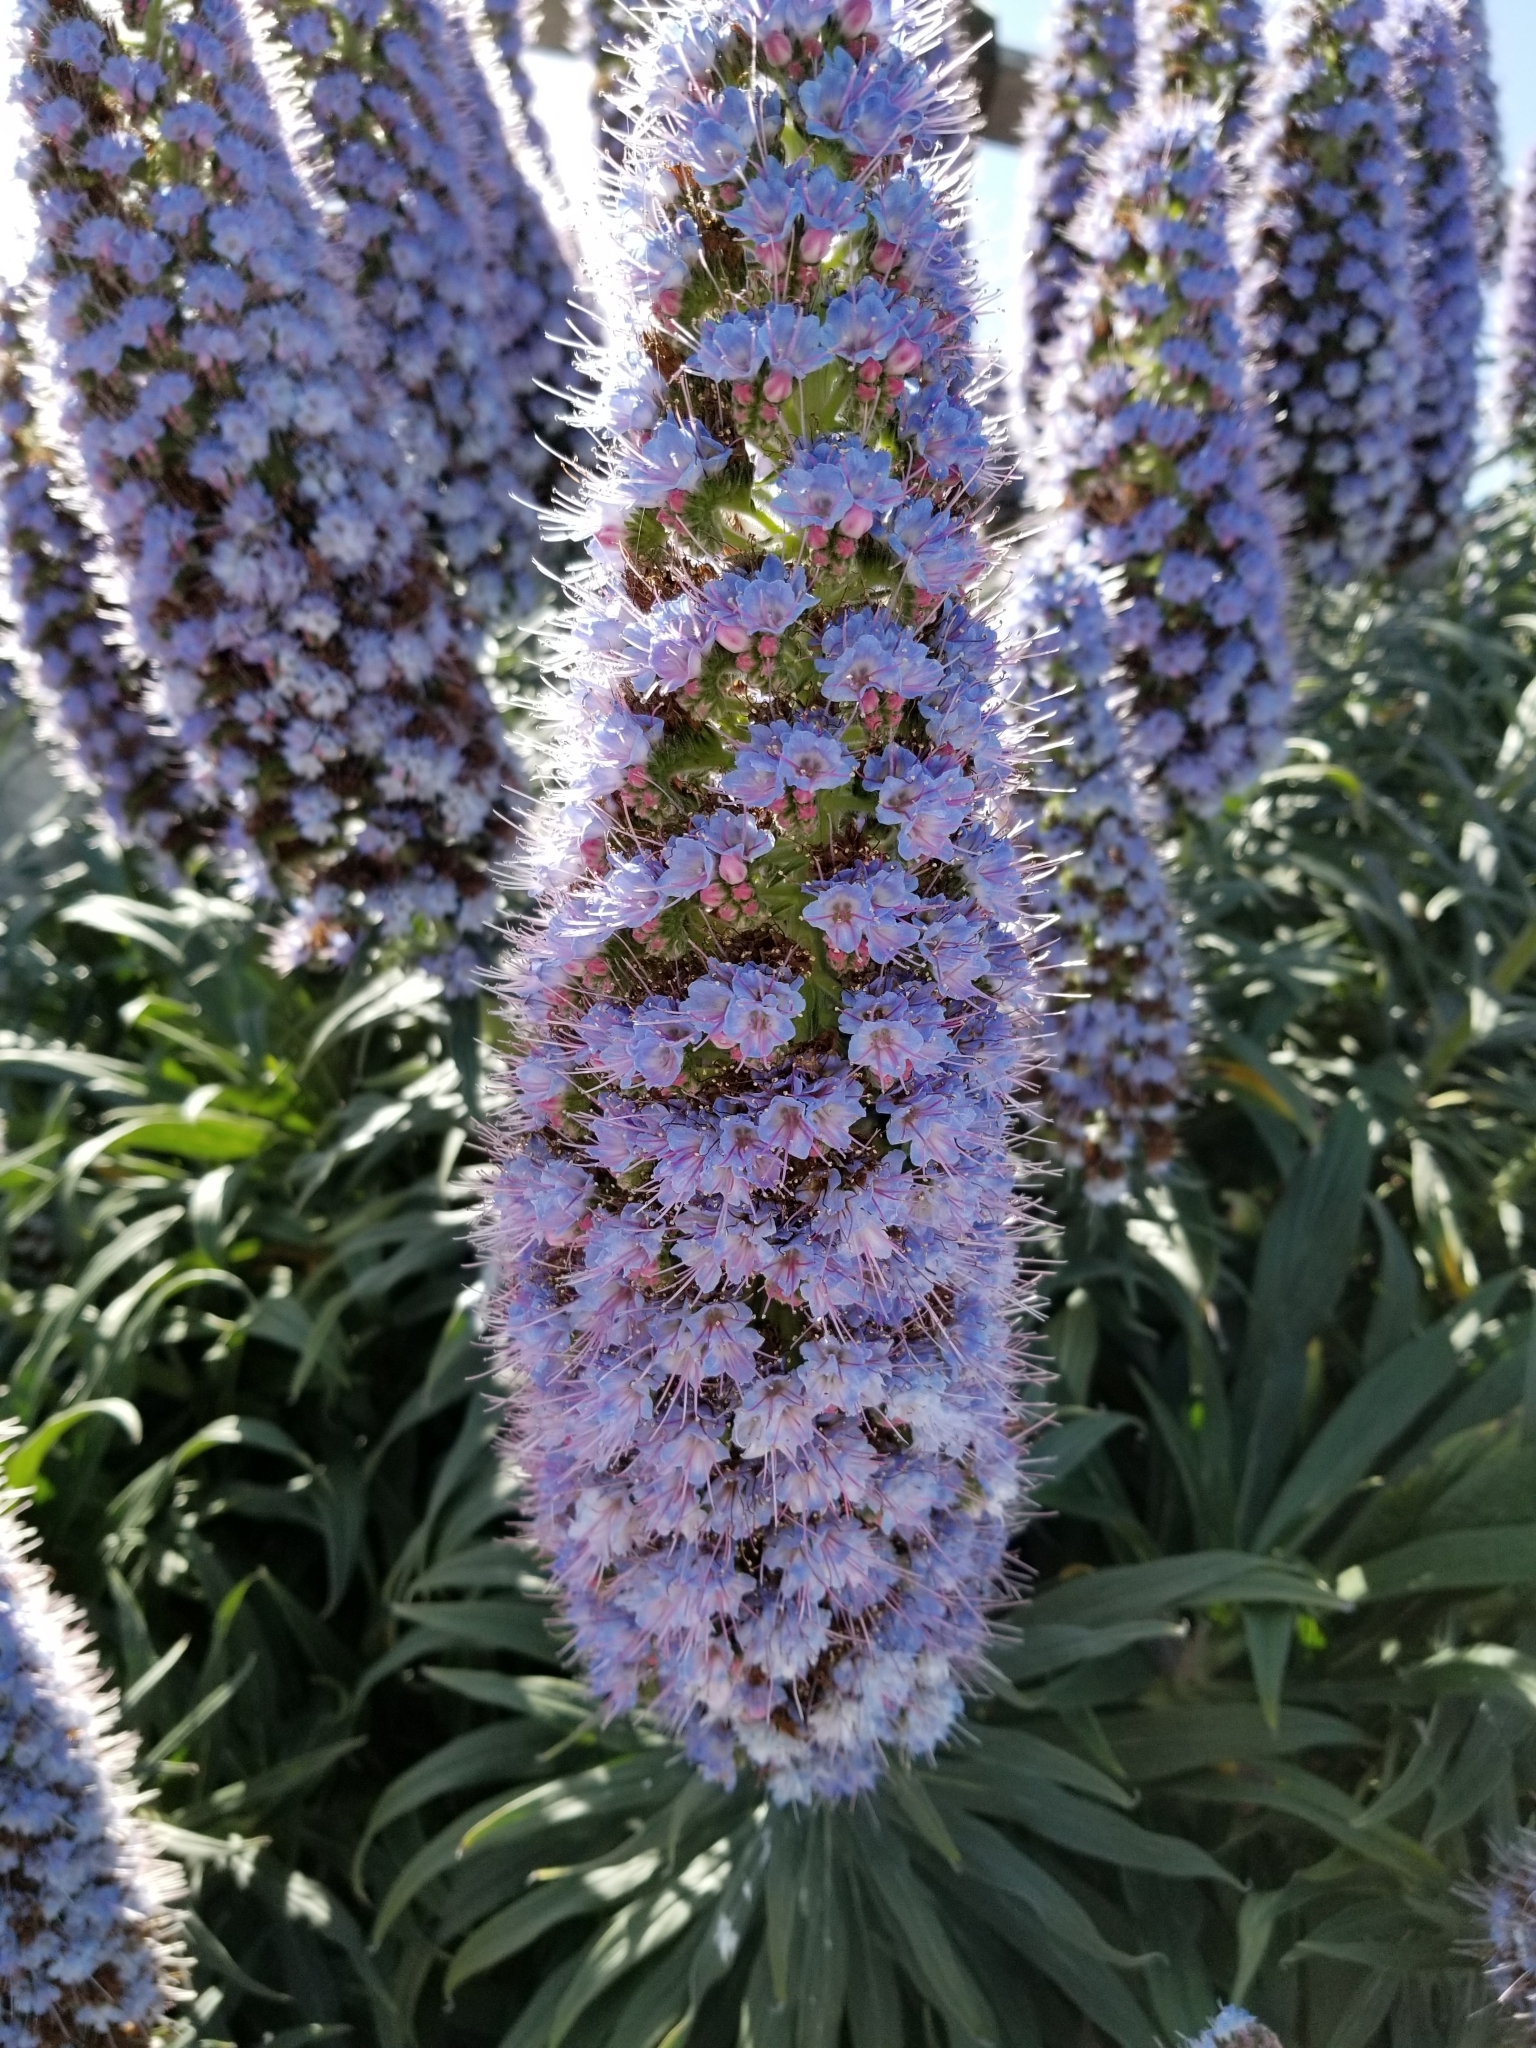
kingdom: Plantae
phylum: Tracheophyta
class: Magnoliopsida
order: Boraginales
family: Boraginaceae
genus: Echium
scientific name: Echium candicans
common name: Pride of madeira
